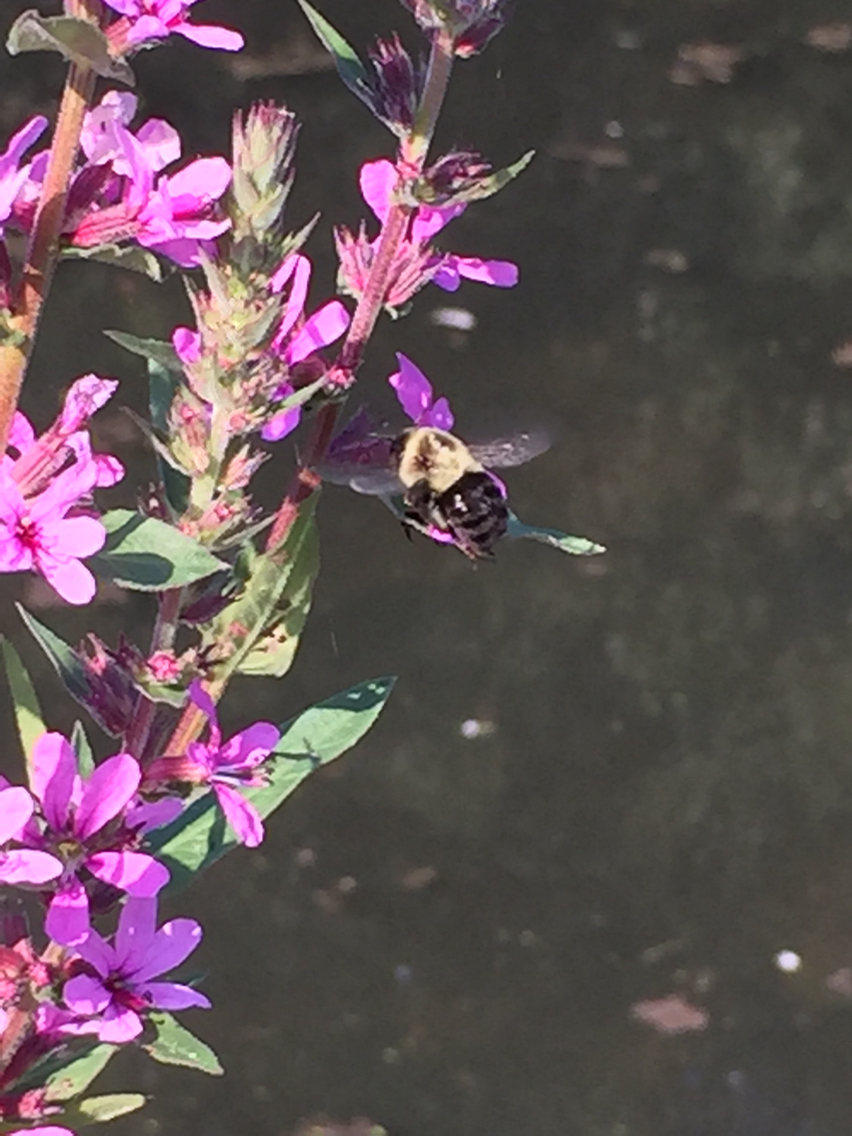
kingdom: Animalia
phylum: Arthropoda
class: Insecta
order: Hymenoptera
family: Apidae
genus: Bombus
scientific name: Bombus impatiens
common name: Common eastern bumble bee
